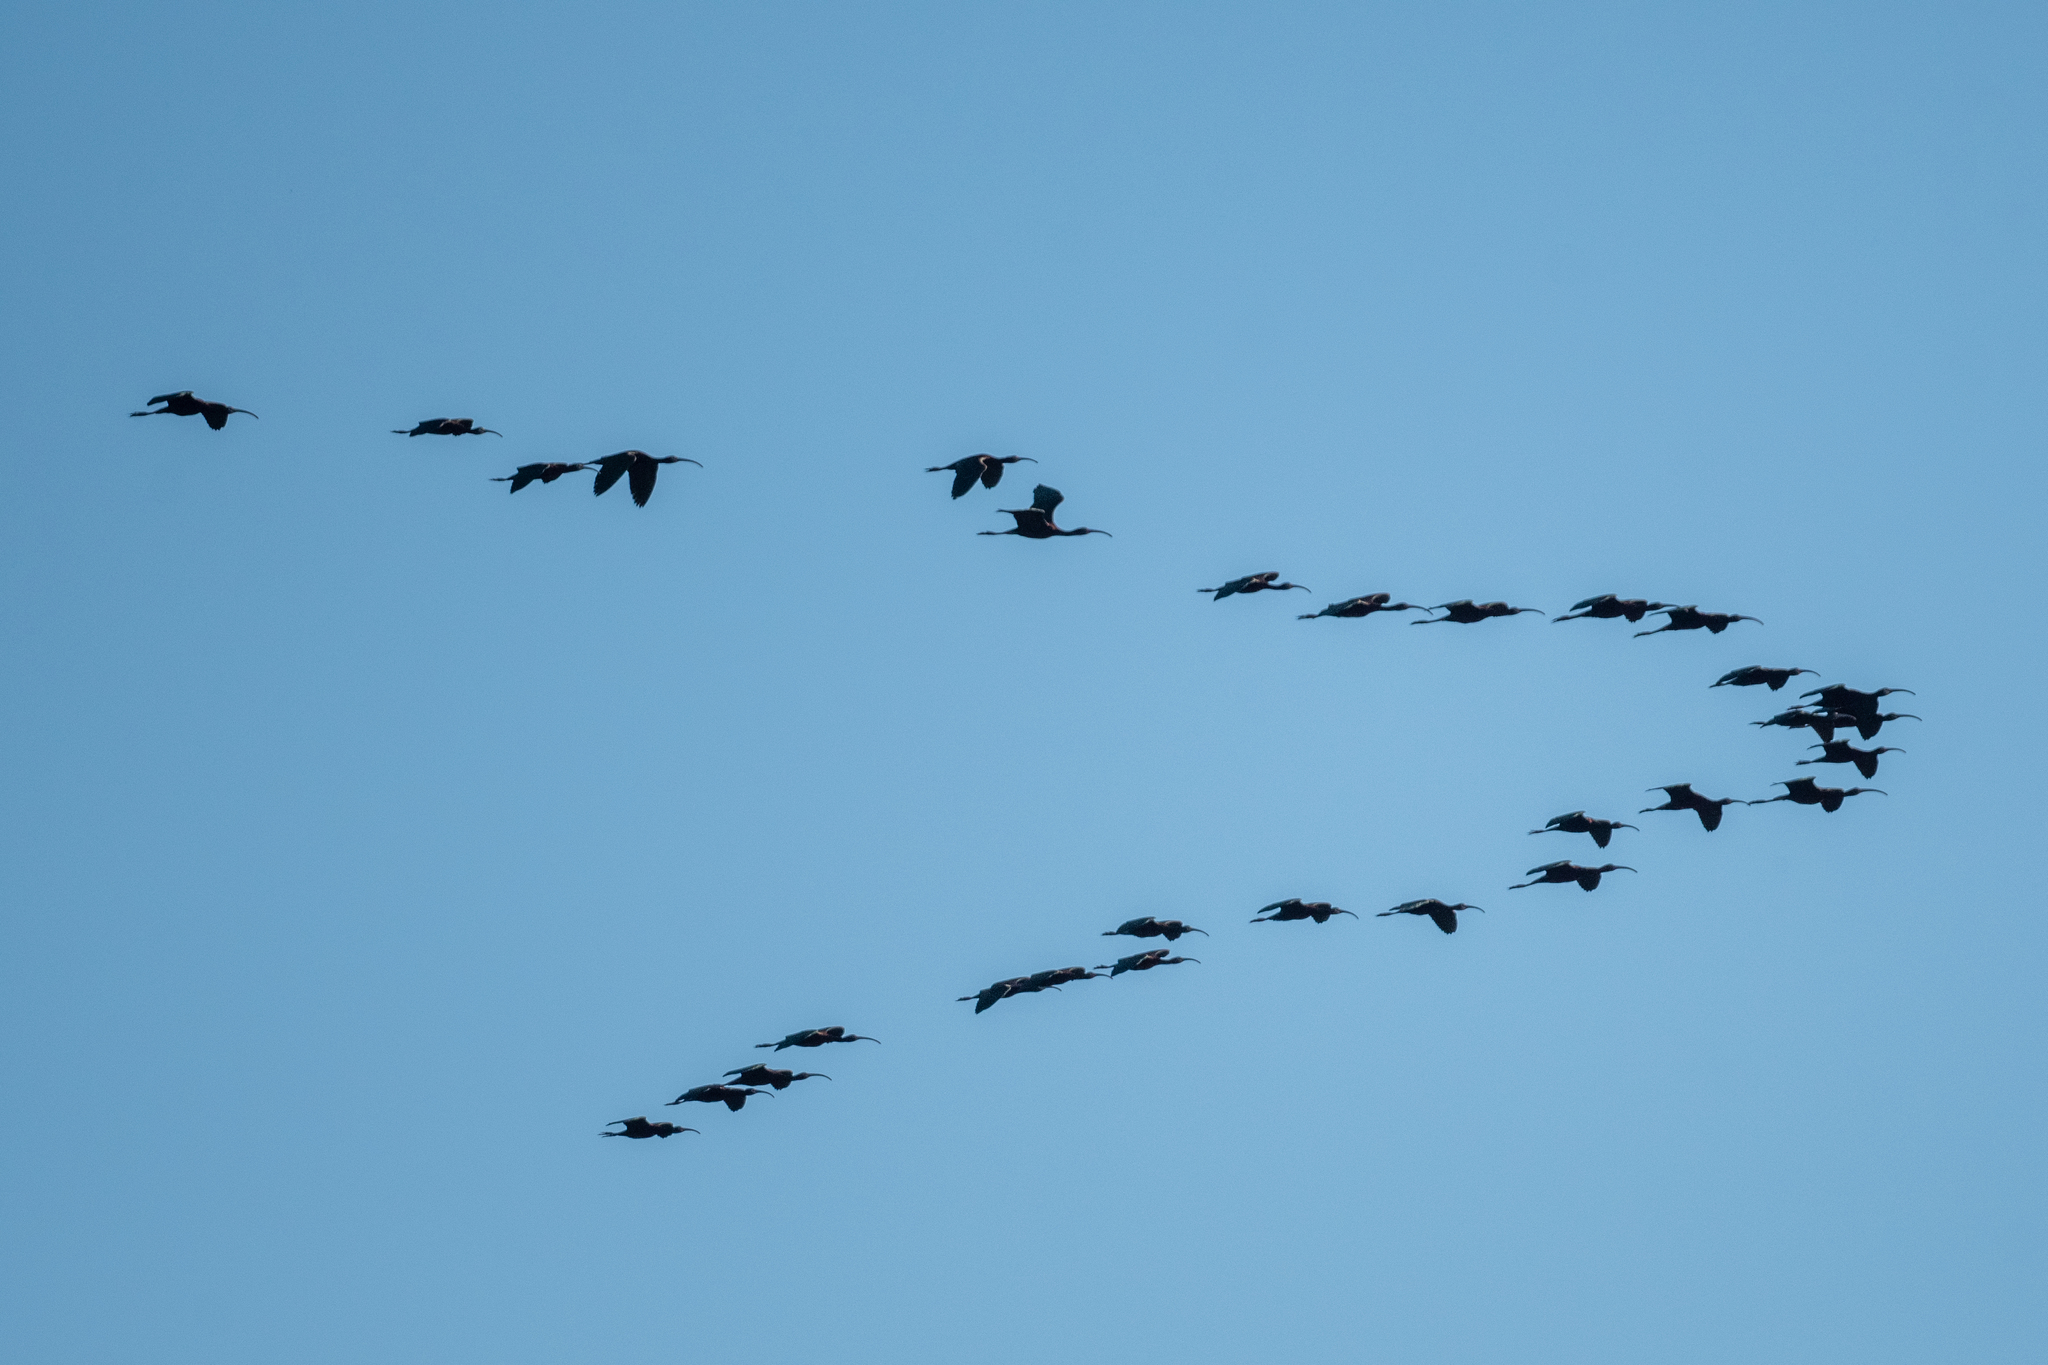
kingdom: Animalia
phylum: Chordata
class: Aves
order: Pelecaniformes
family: Threskiornithidae
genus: Plegadis
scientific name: Plegadis chihi
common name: White-faced ibis
